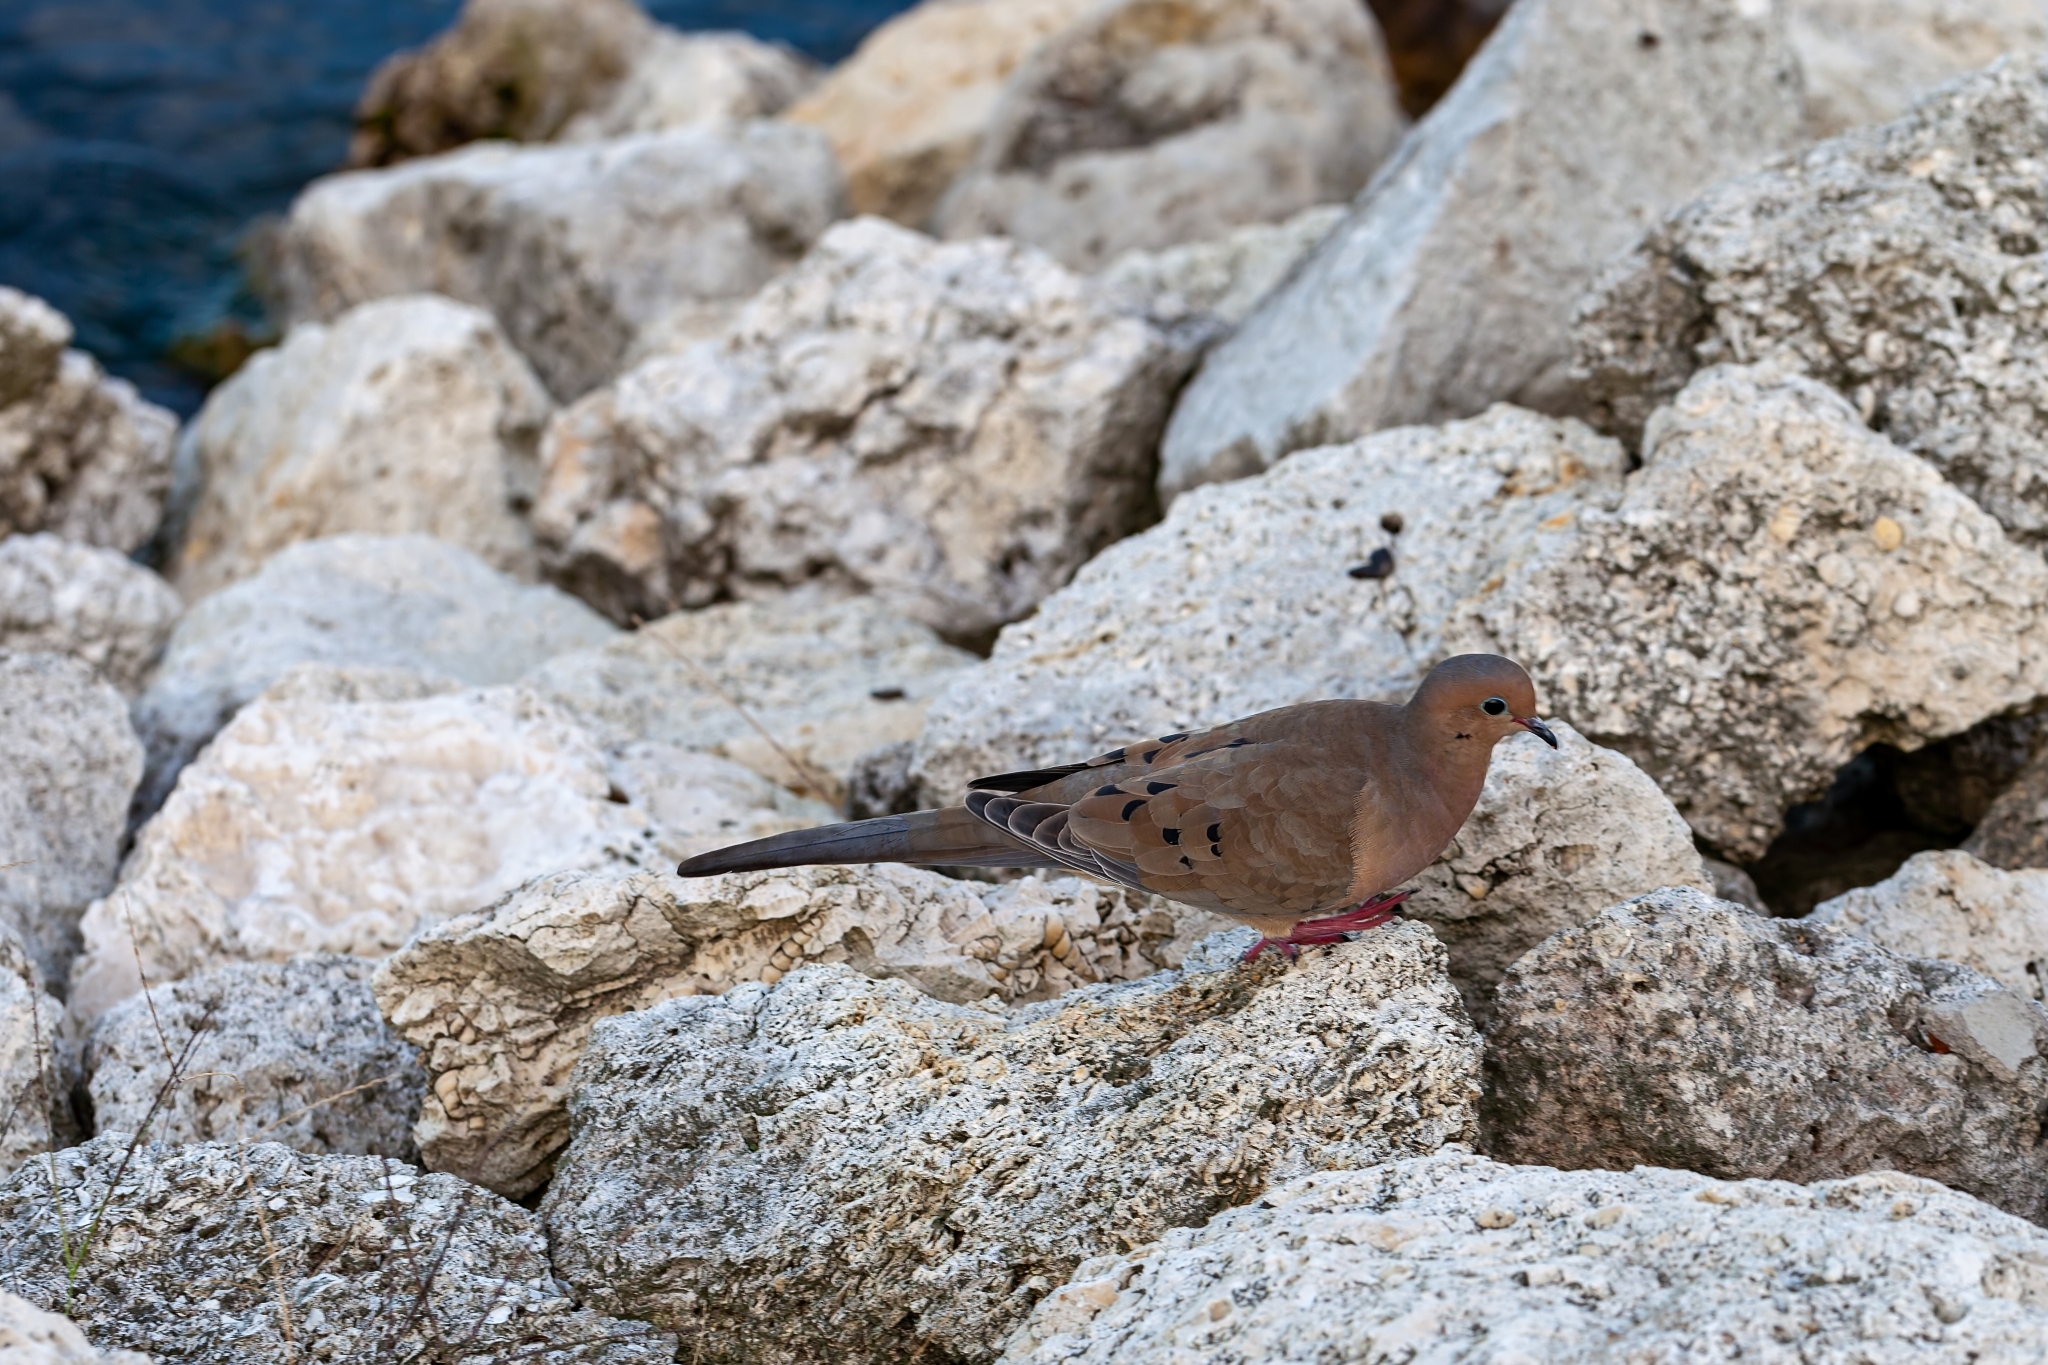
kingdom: Animalia
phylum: Chordata
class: Aves
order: Columbiformes
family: Columbidae
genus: Zenaida
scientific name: Zenaida macroura
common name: Mourning dove
